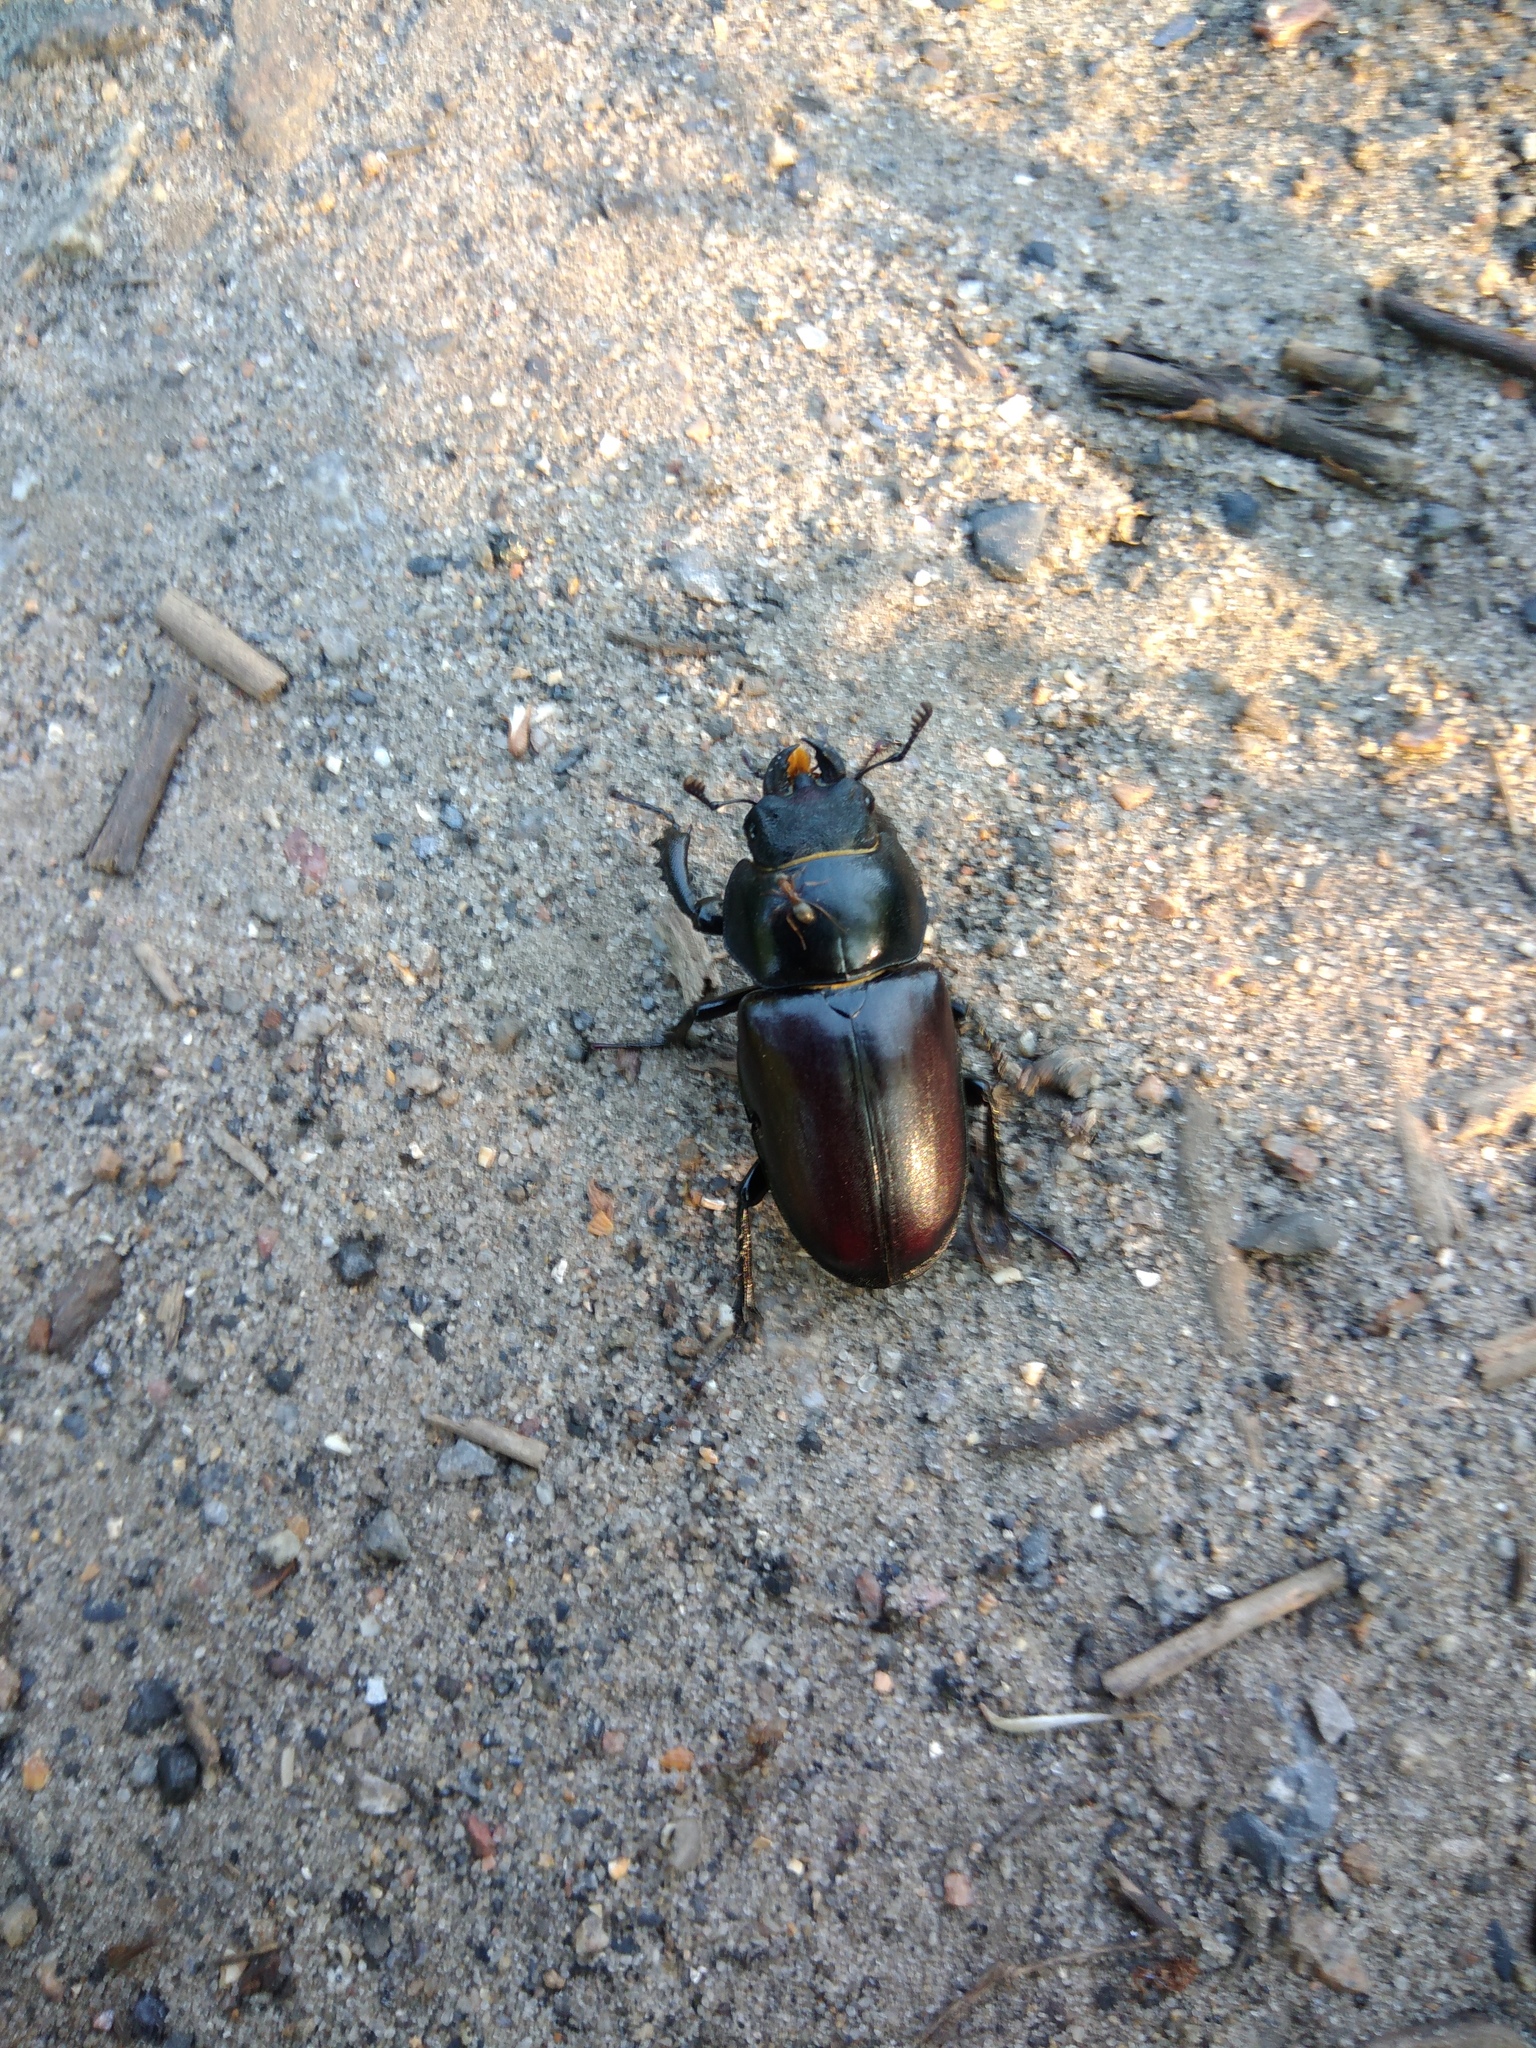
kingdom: Animalia
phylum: Arthropoda
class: Insecta
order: Coleoptera
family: Lucanidae
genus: Lucanus
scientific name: Lucanus cervus
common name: Stag beetle
